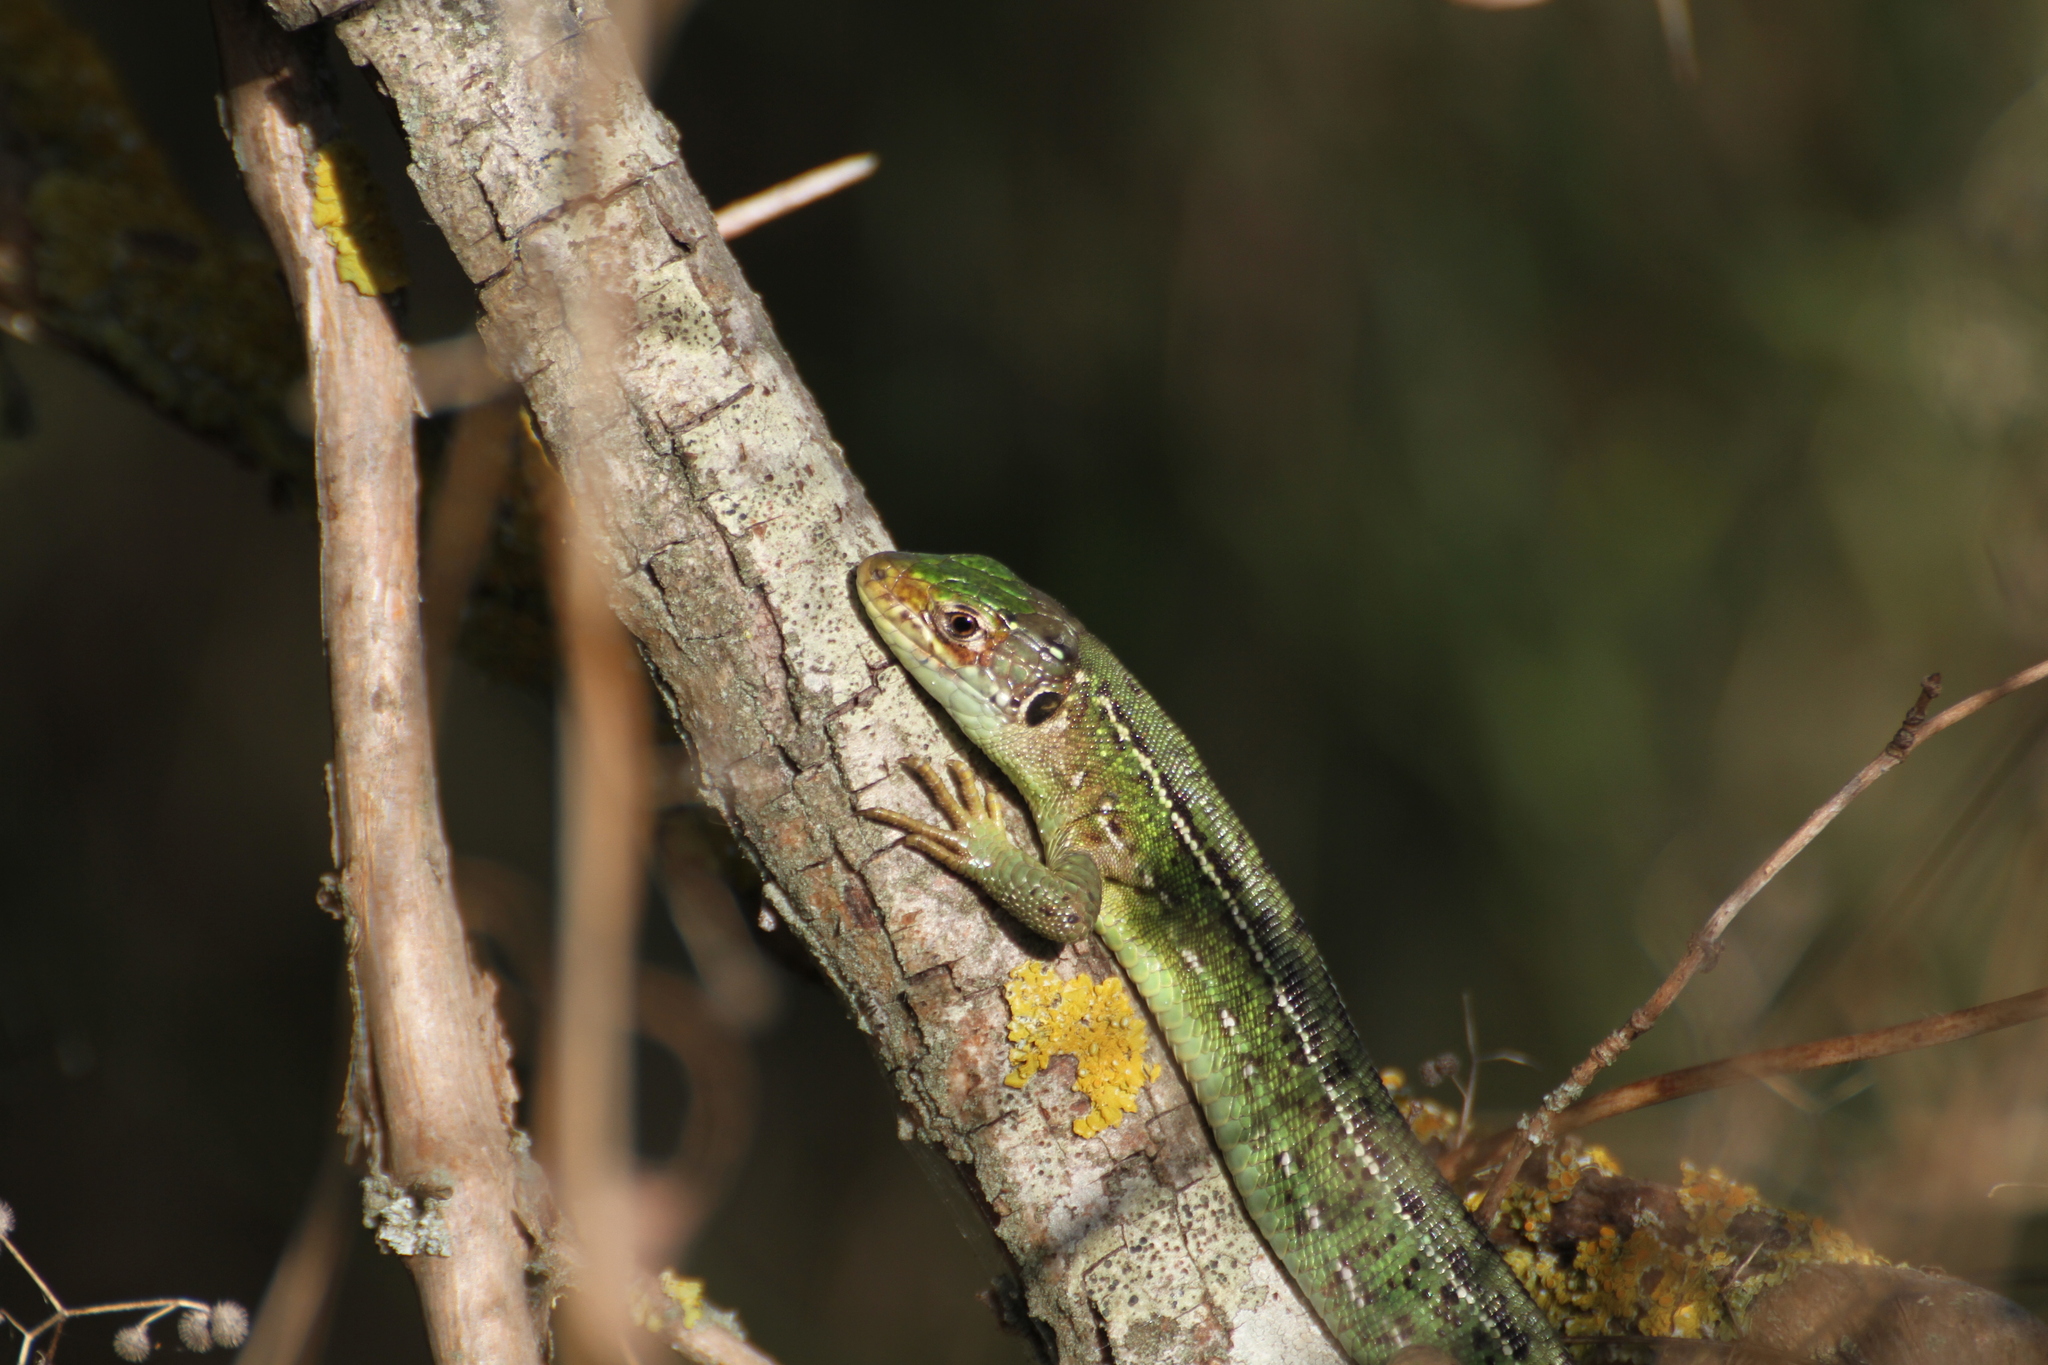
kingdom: Animalia
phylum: Chordata
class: Squamata
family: Lacertidae
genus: Lacerta
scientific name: Lacerta bilineata
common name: Western green lizard
